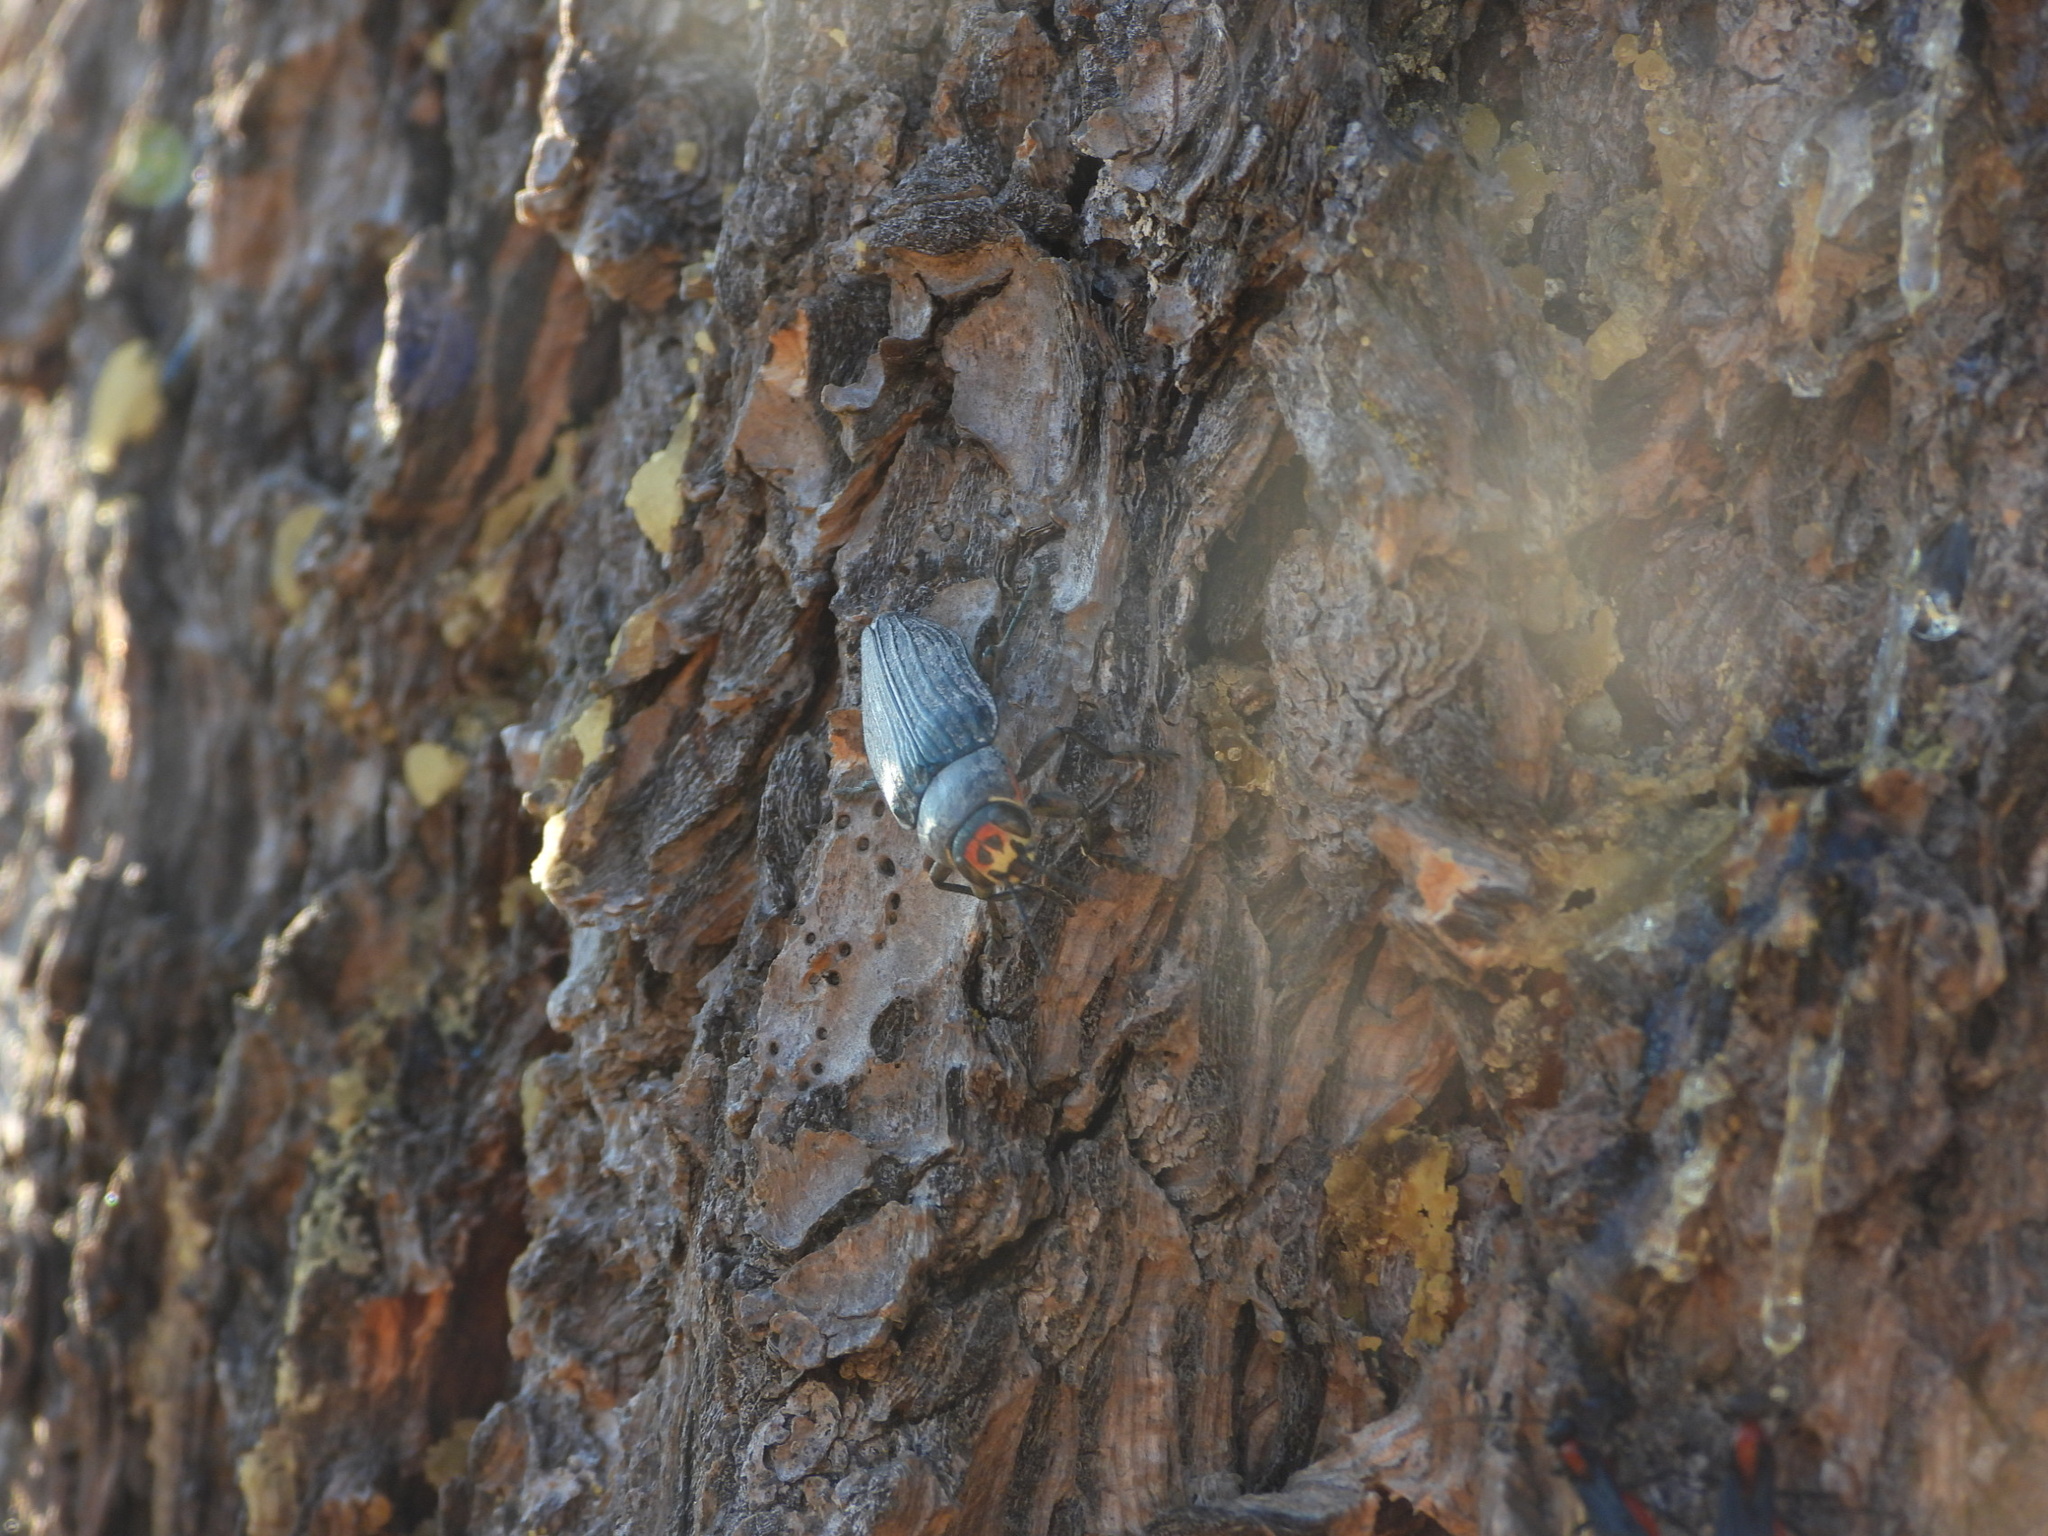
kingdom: Animalia
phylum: Arthropoda
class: Insecta
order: Coleoptera
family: Buprestidae
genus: Buprestis
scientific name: Buprestis lyrata
